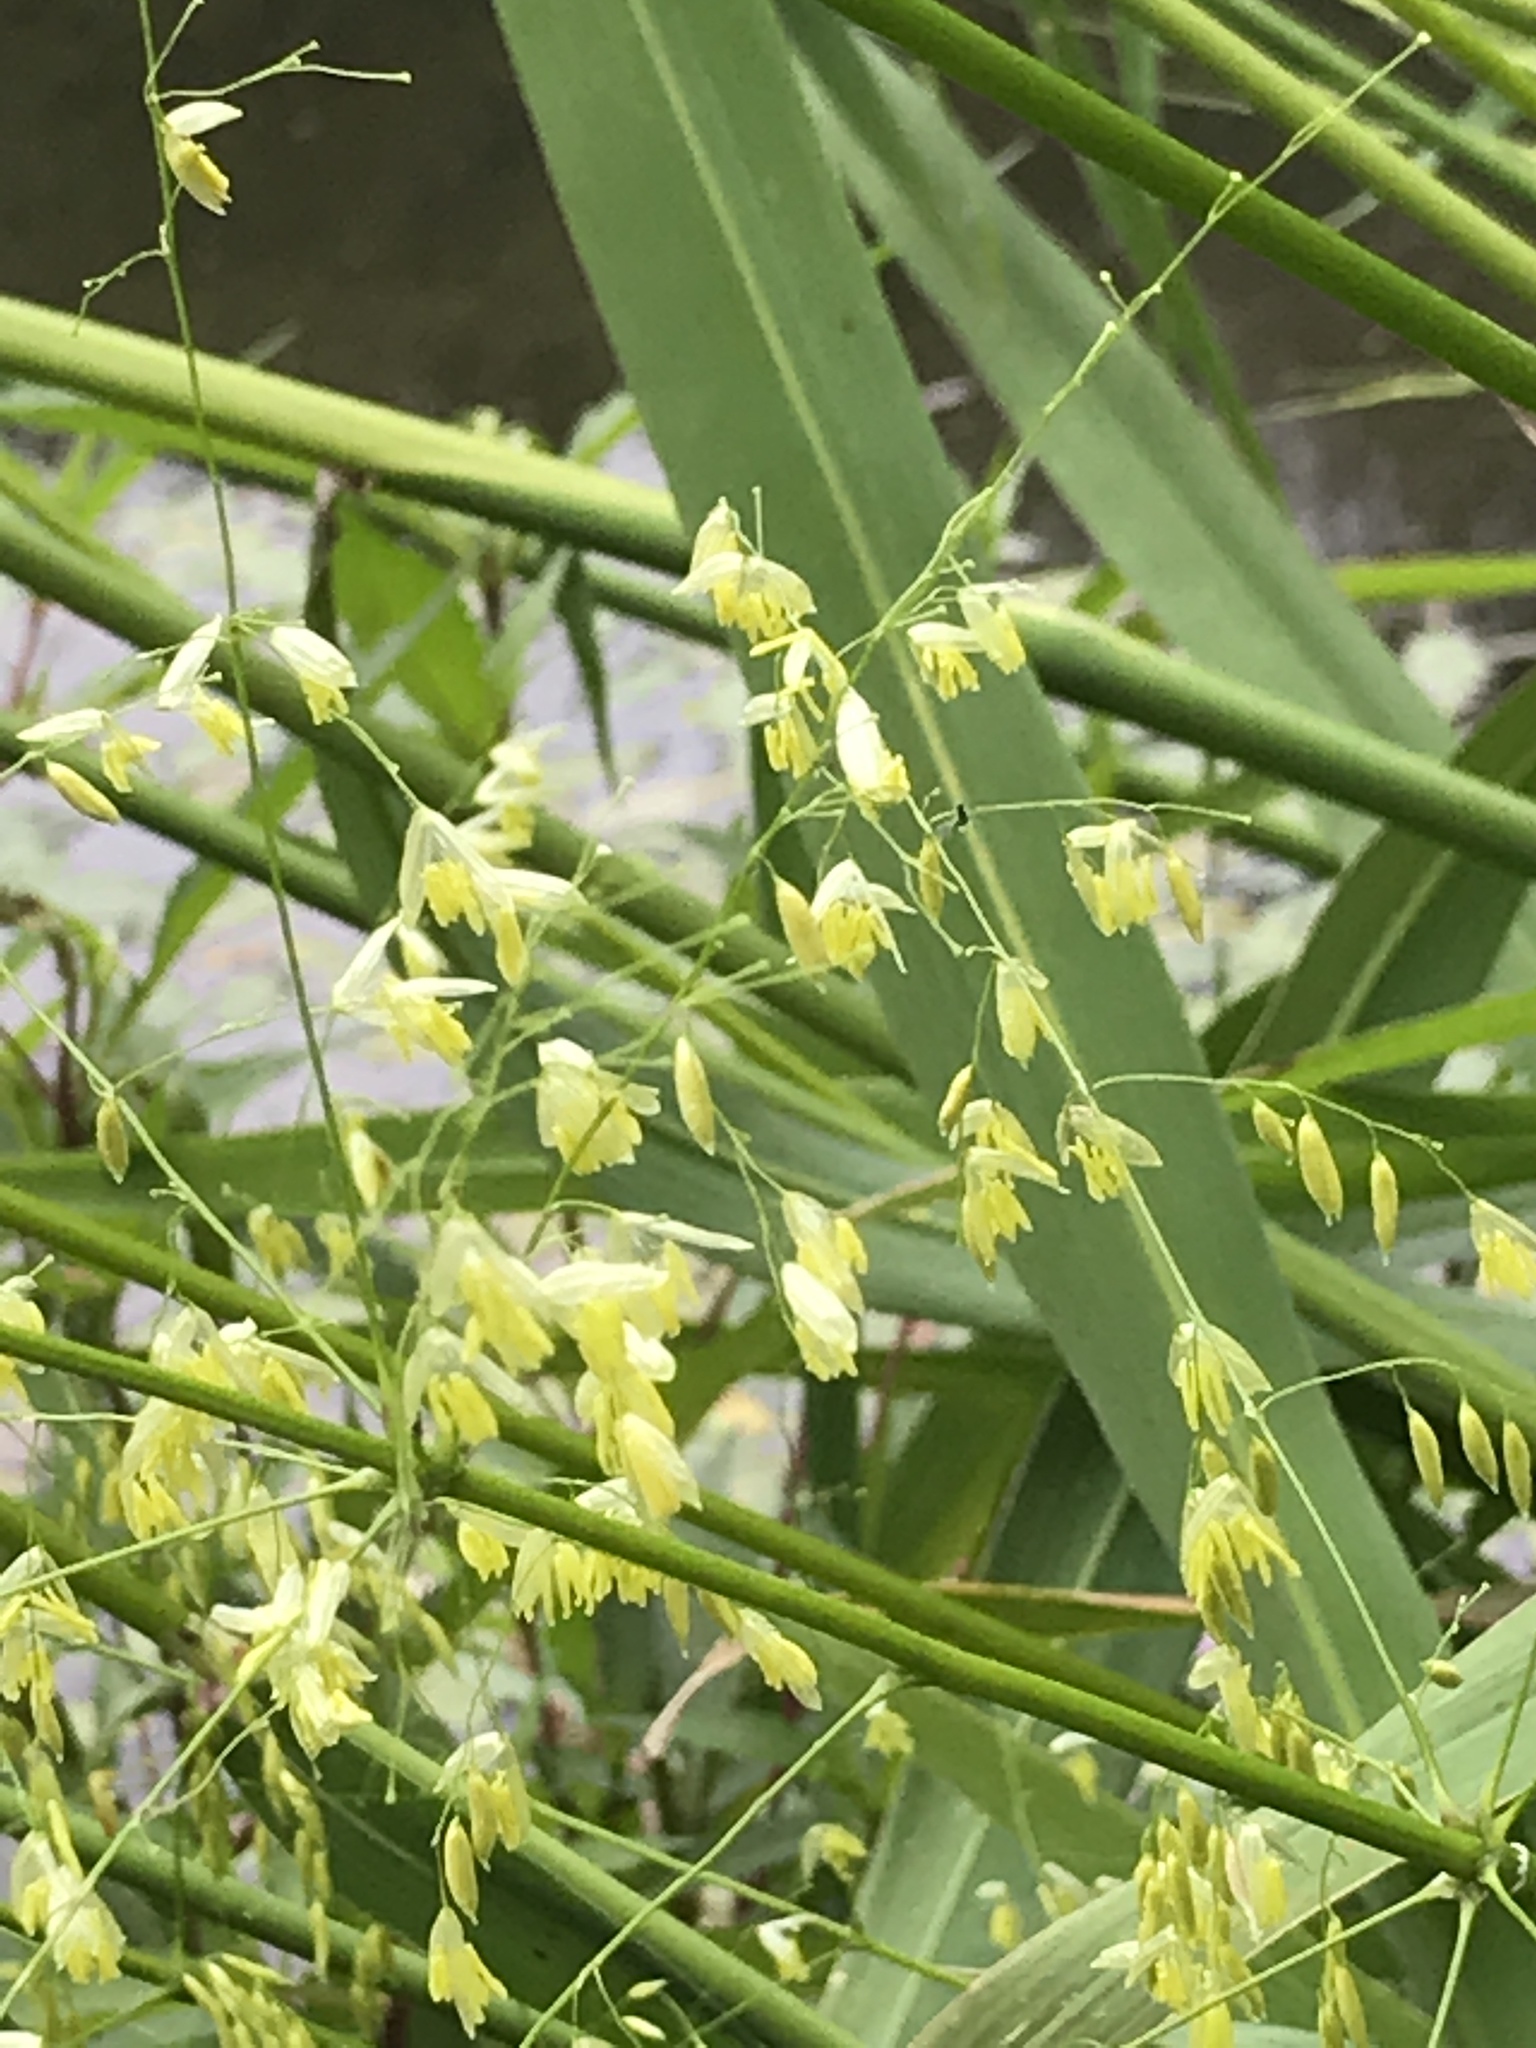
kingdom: Plantae
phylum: Tracheophyta
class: Liliopsida
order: Poales
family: Poaceae
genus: Zizania
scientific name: Zizania aquatica
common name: Annual wildrice
